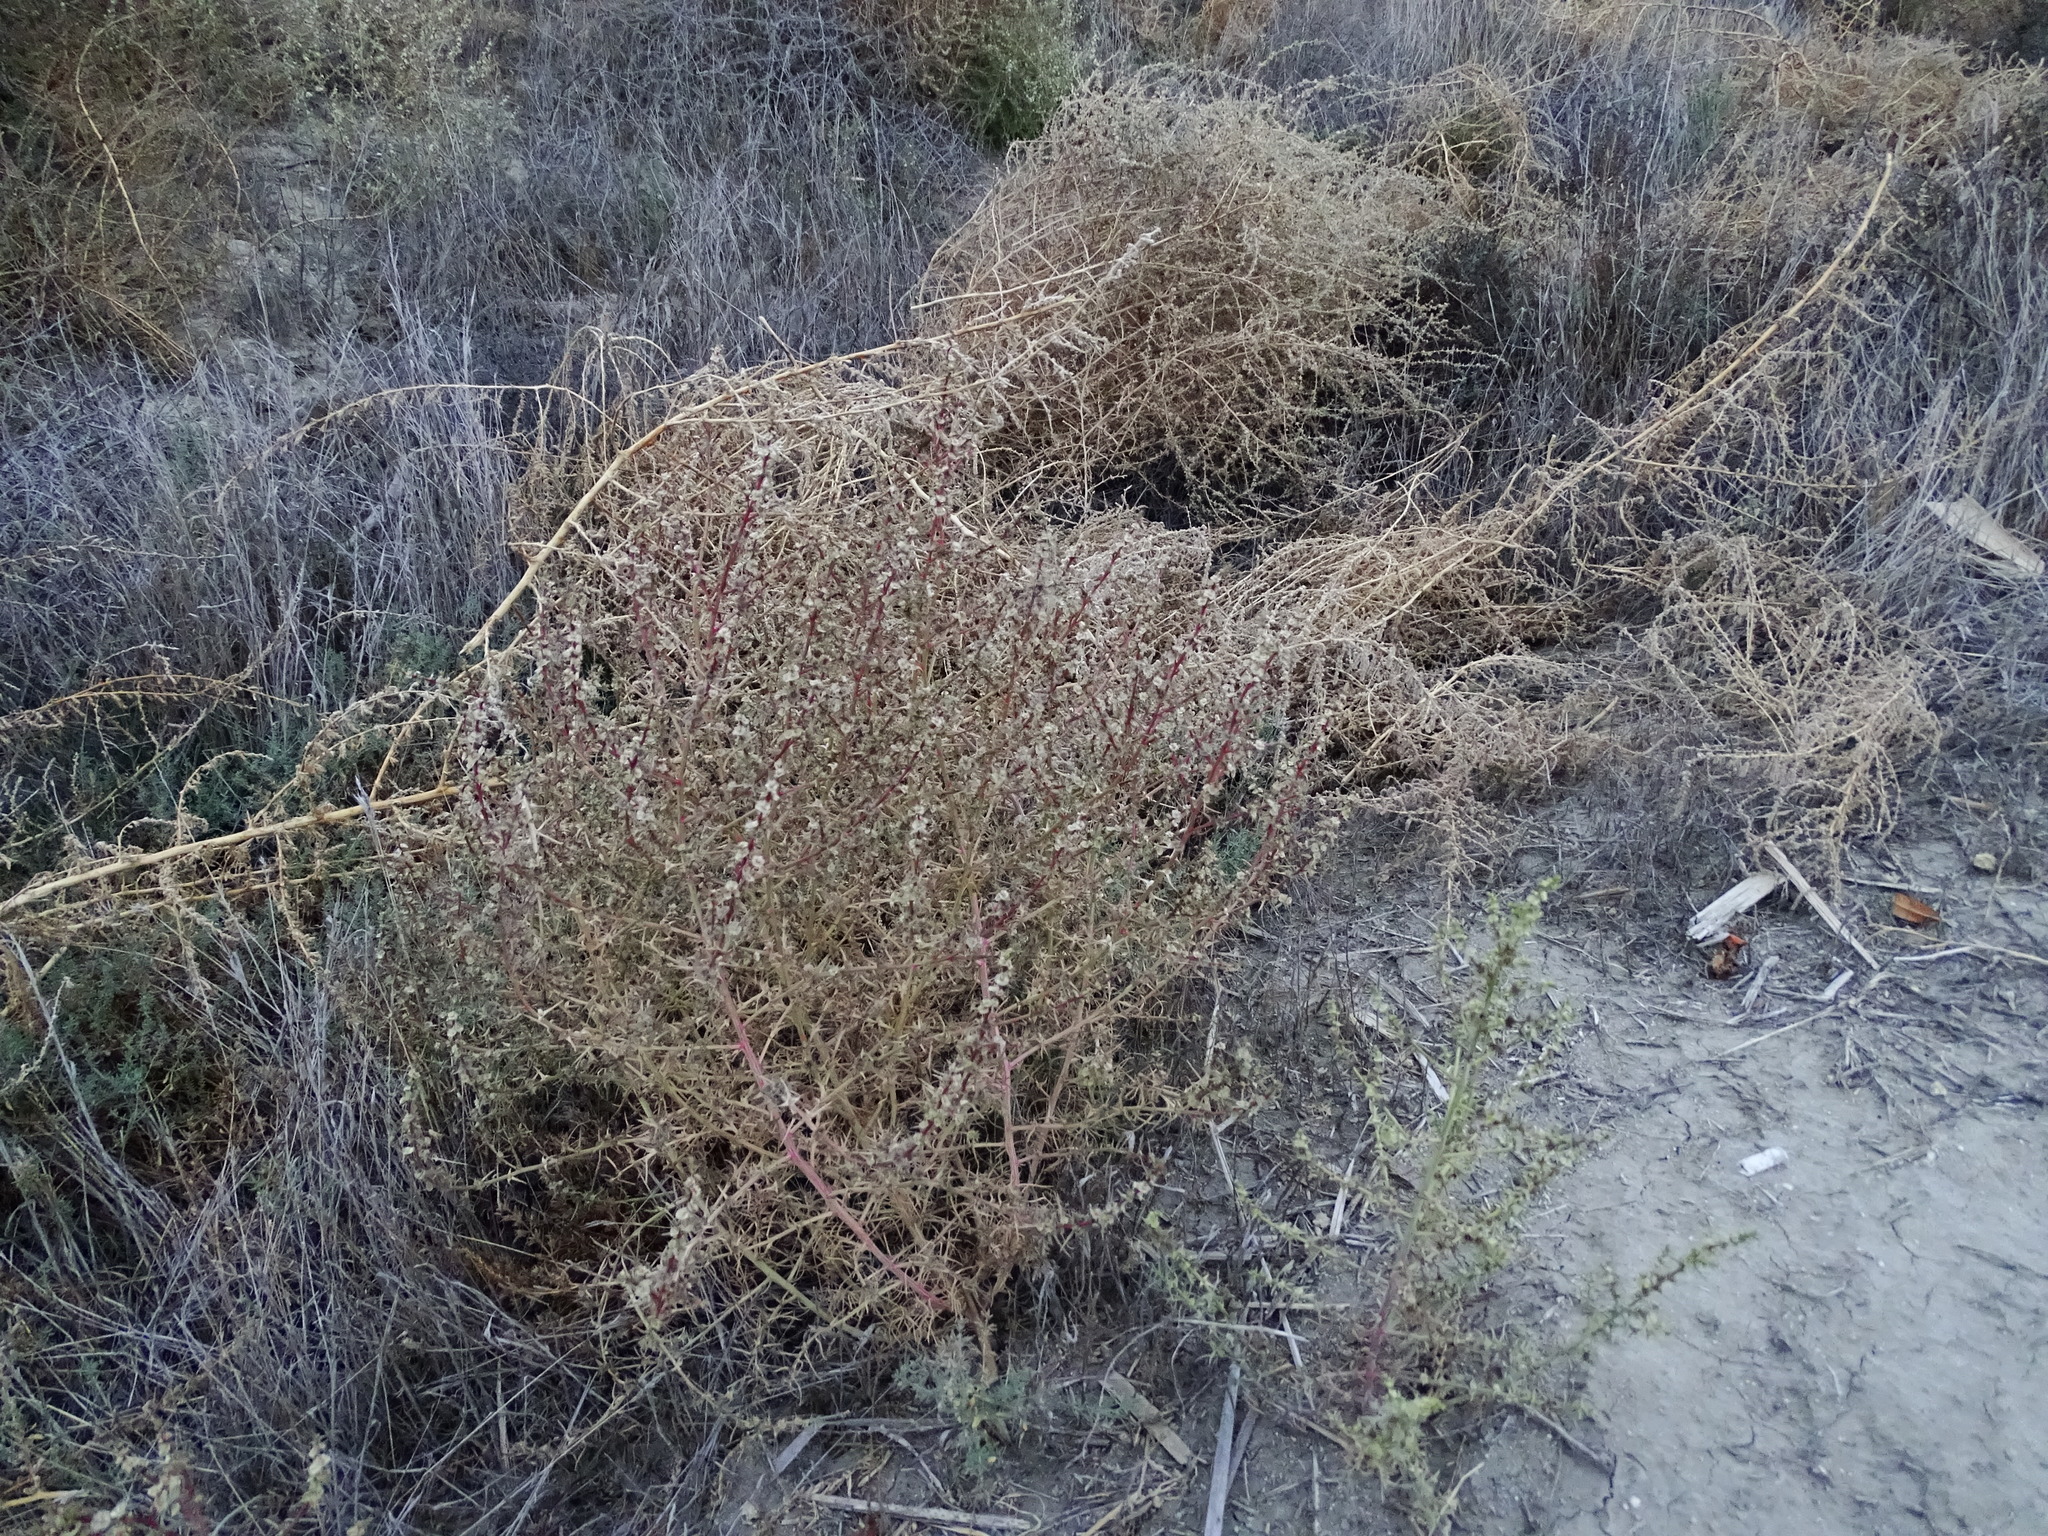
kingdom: Plantae
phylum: Tracheophyta
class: Magnoliopsida
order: Caryophyllales
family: Amaranthaceae
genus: Salsola
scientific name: Salsola tragus
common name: Prickly russian thistle
